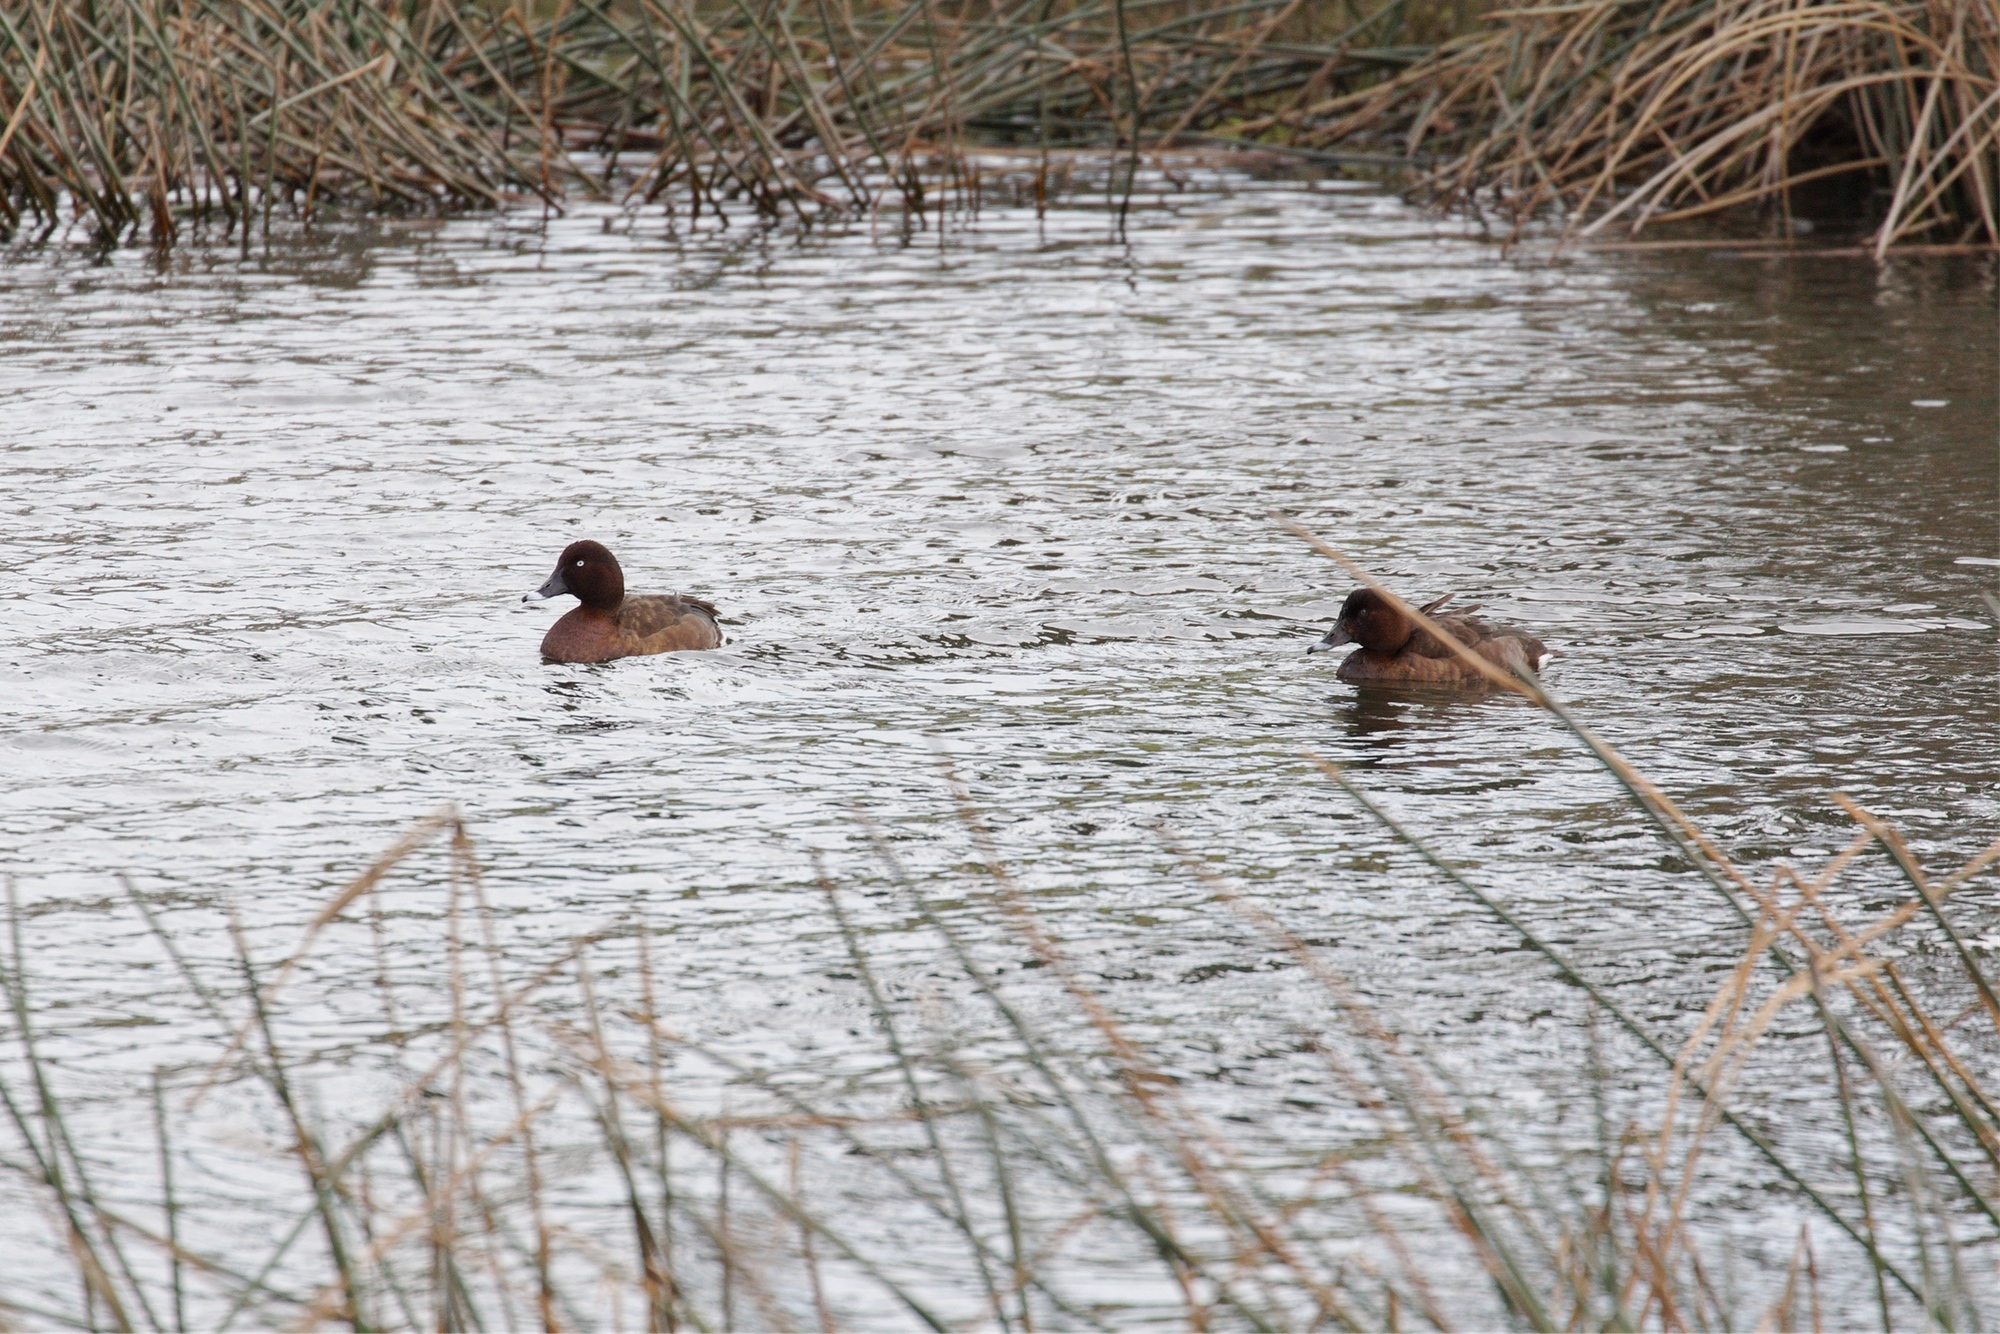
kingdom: Animalia
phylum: Chordata
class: Aves
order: Anseriformes
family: Anatidae
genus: Aythya
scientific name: Aythya australis
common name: Hardhead
